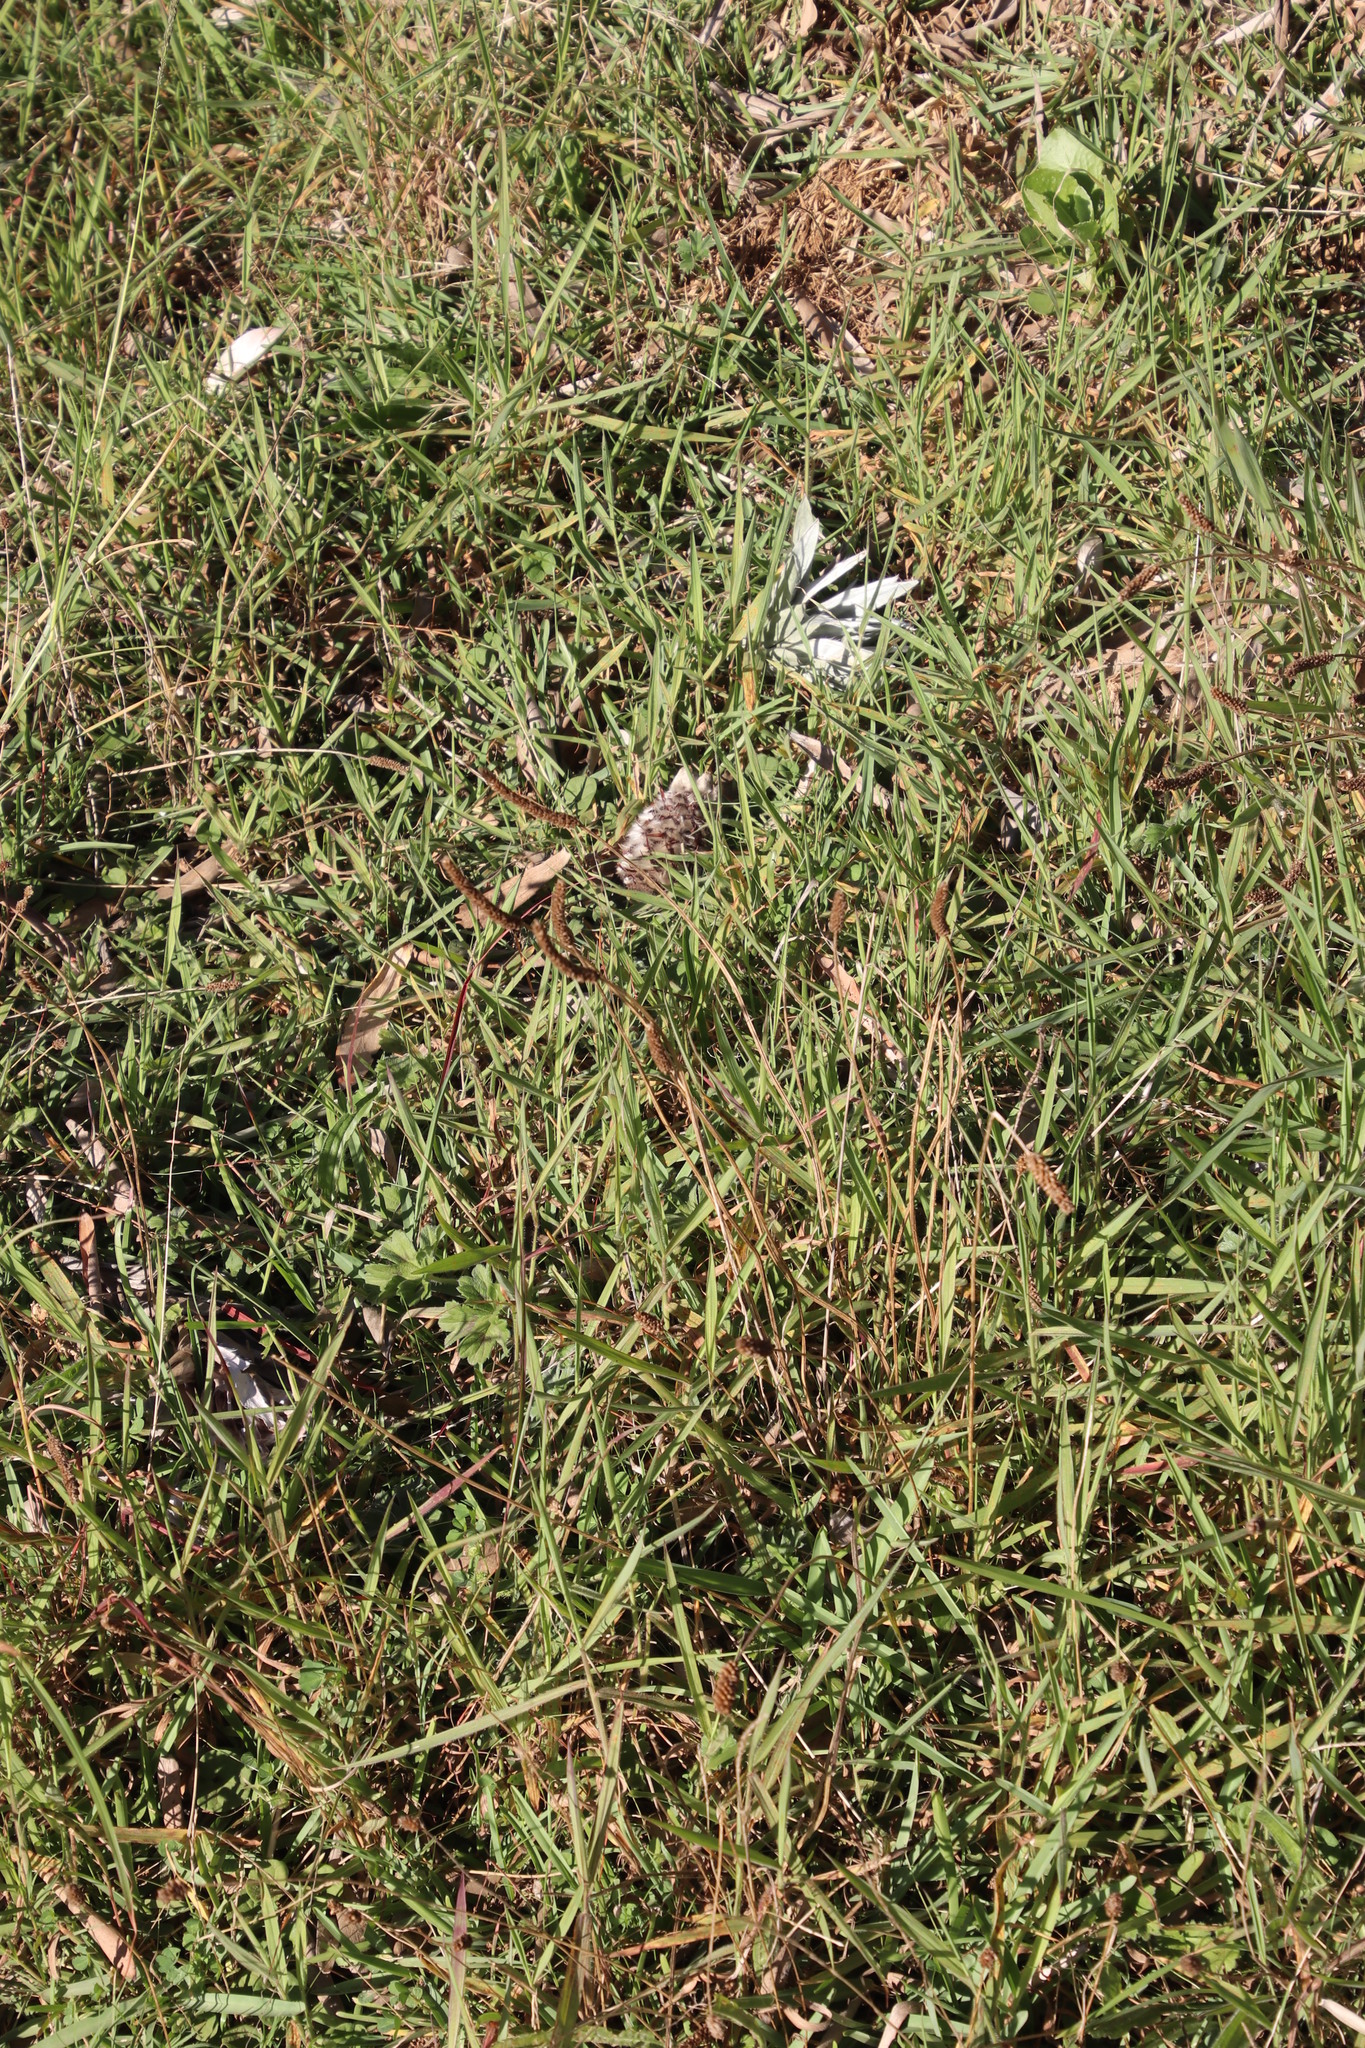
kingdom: Plantae
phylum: Tracheophyta
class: Magnoliopsida
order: Lamiales
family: Plantaginaceae
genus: Plantago
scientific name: Plantago lanceolata
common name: Ribwort plantain
